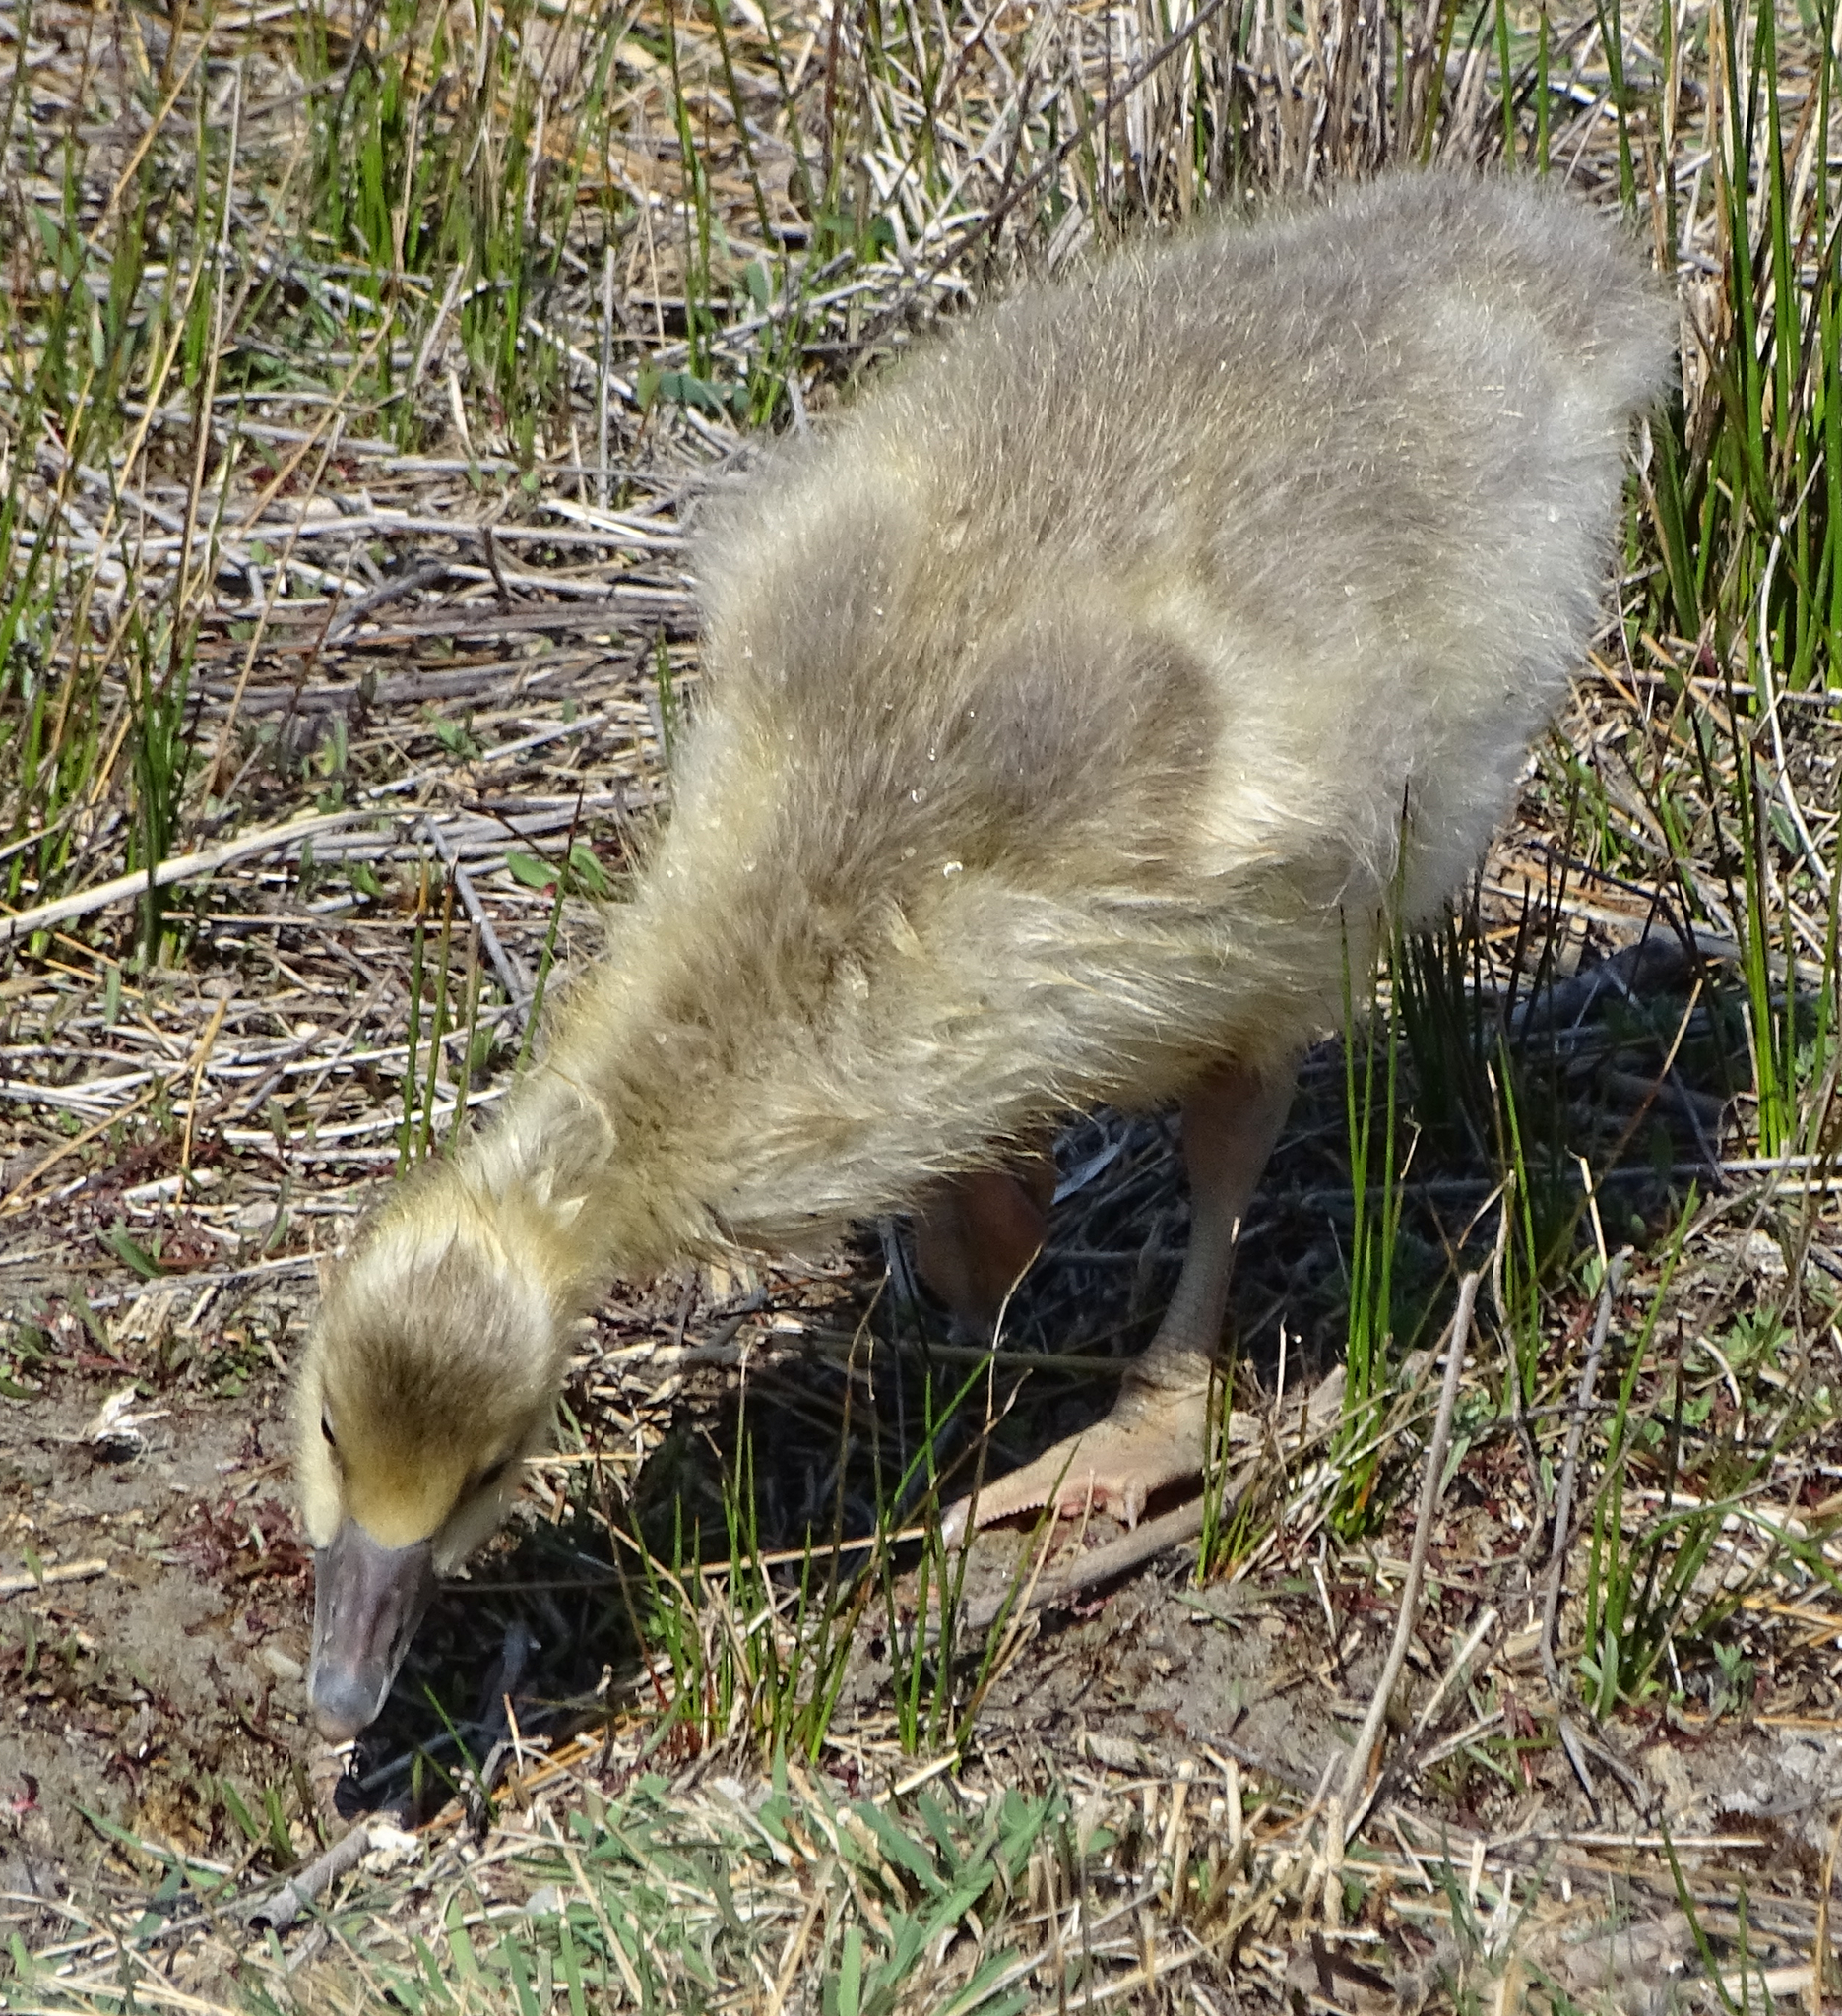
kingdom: Animalia
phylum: Chordata
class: Aves
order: Anseriformes
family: Anatidae
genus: Anser
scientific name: Anser anser
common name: Greylag goose
